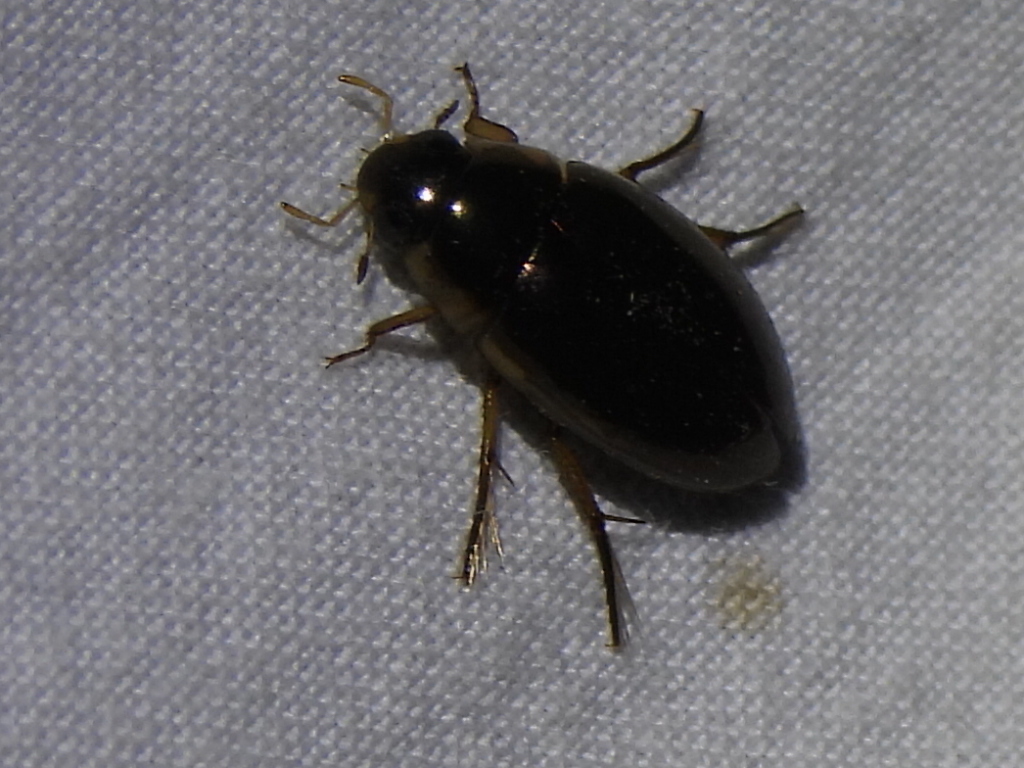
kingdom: Animalia
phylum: Arthropoda
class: Insecta
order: Coleoptera
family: Hydrophilidae
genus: Tropisternus
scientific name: Tropisternus lateralis
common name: Lateral-banded water scavenger beetle
